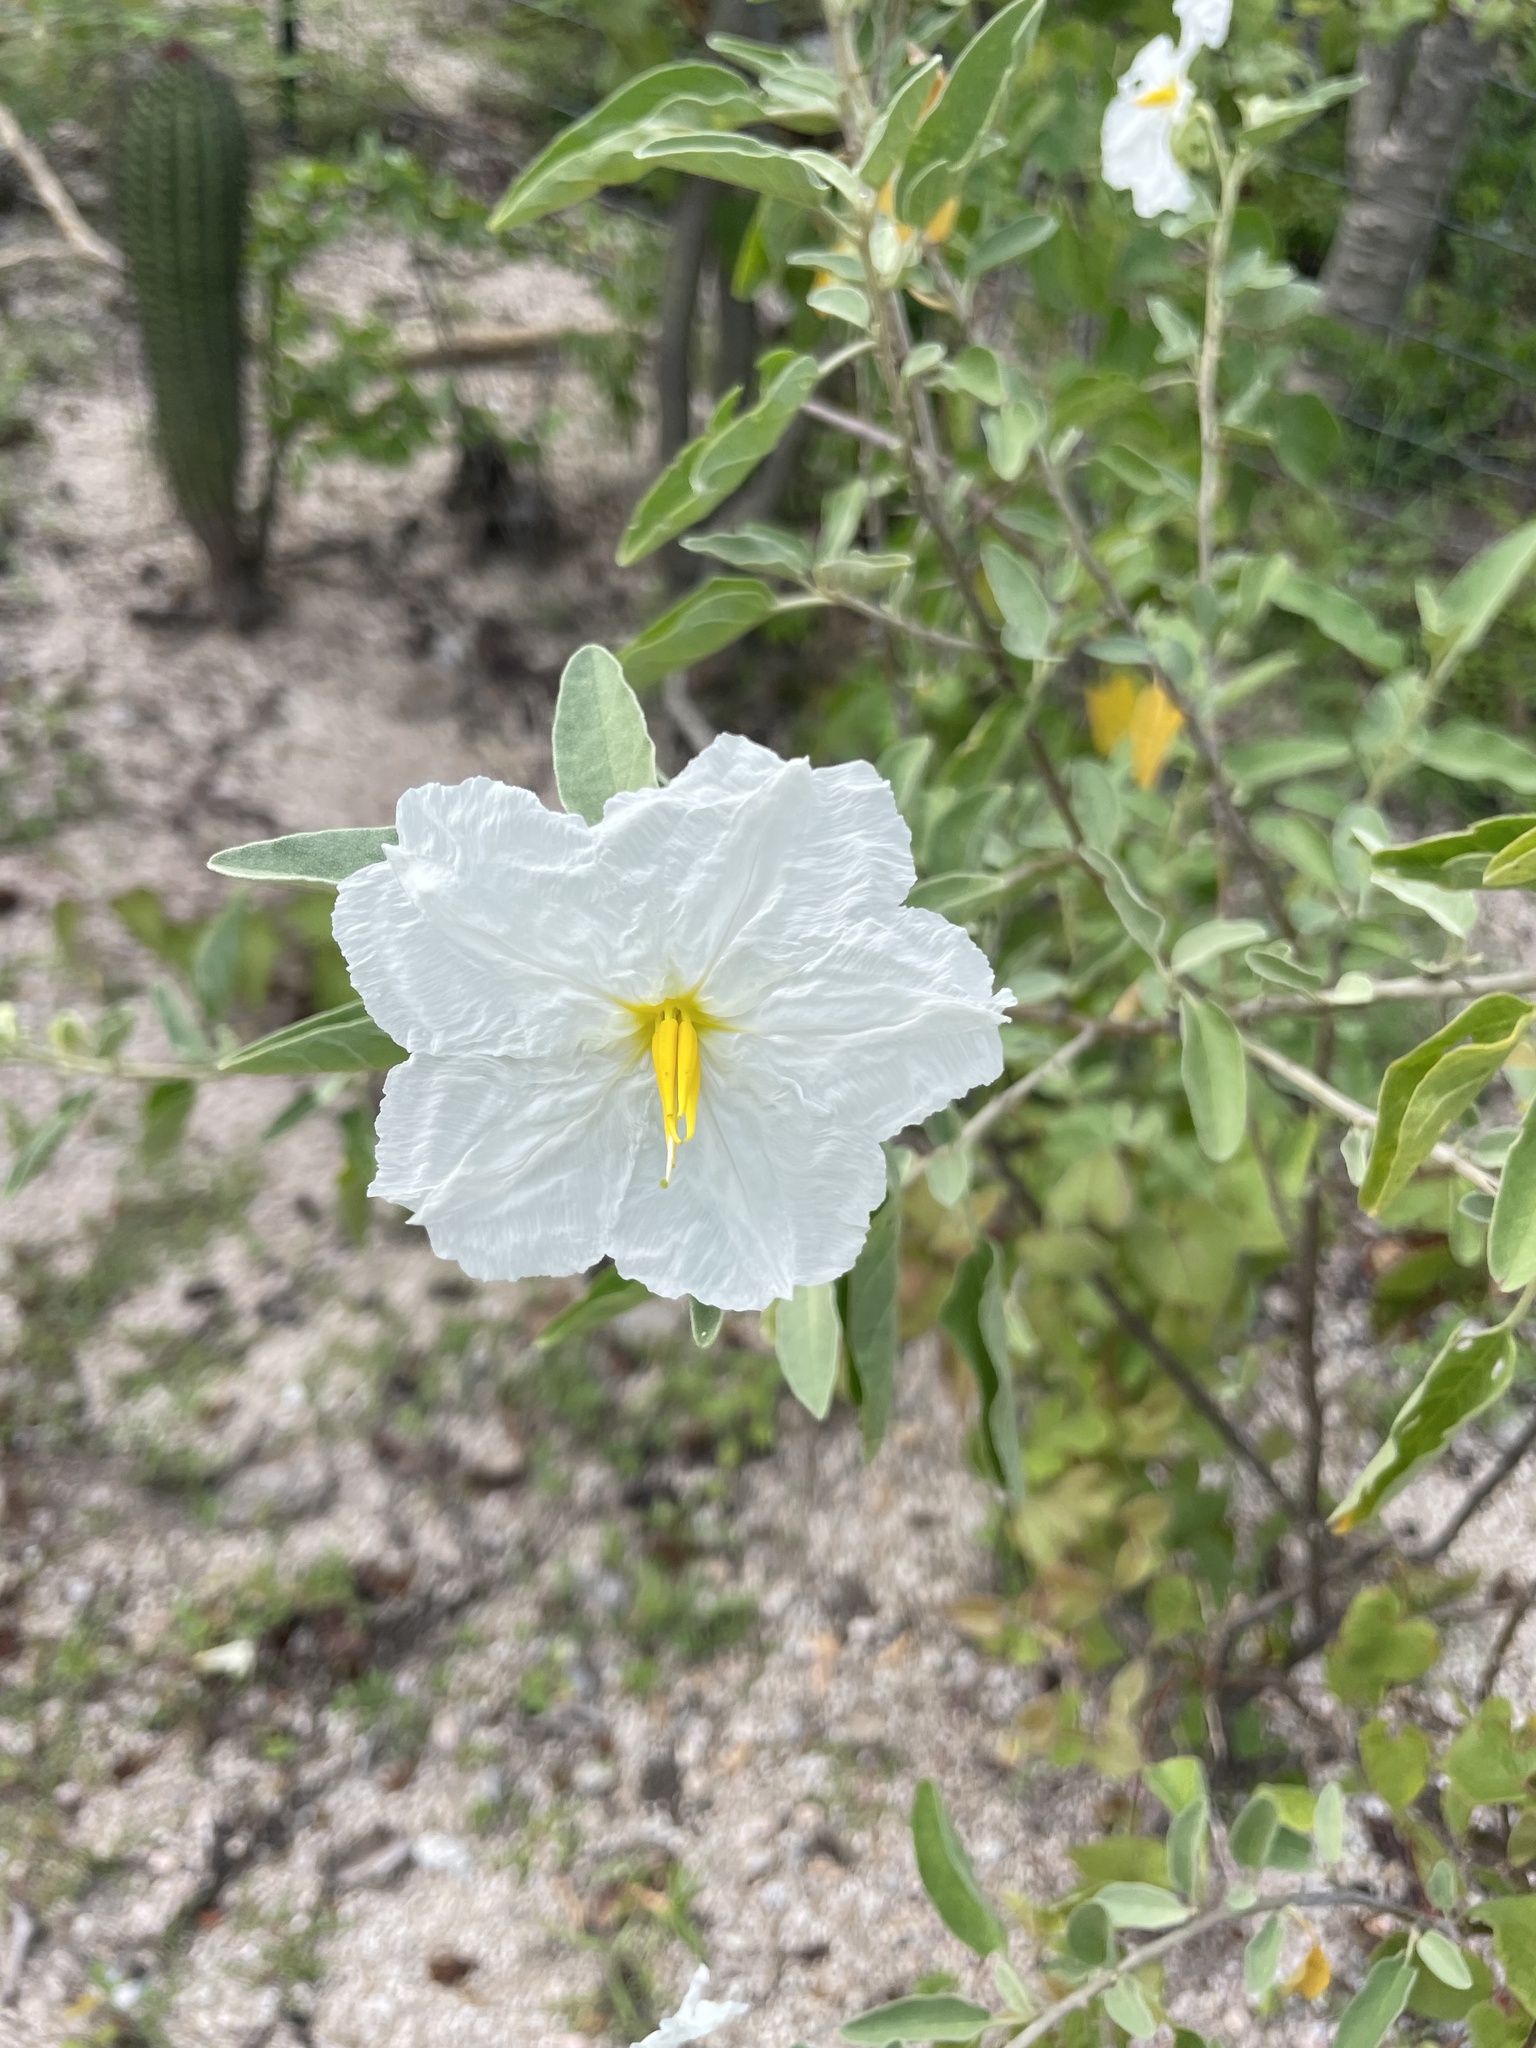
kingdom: Plantae
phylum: Tracheophyta
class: Magnoliopsida
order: Solanales
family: Solanaceae
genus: Solanum
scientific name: Solanum hindsianum
